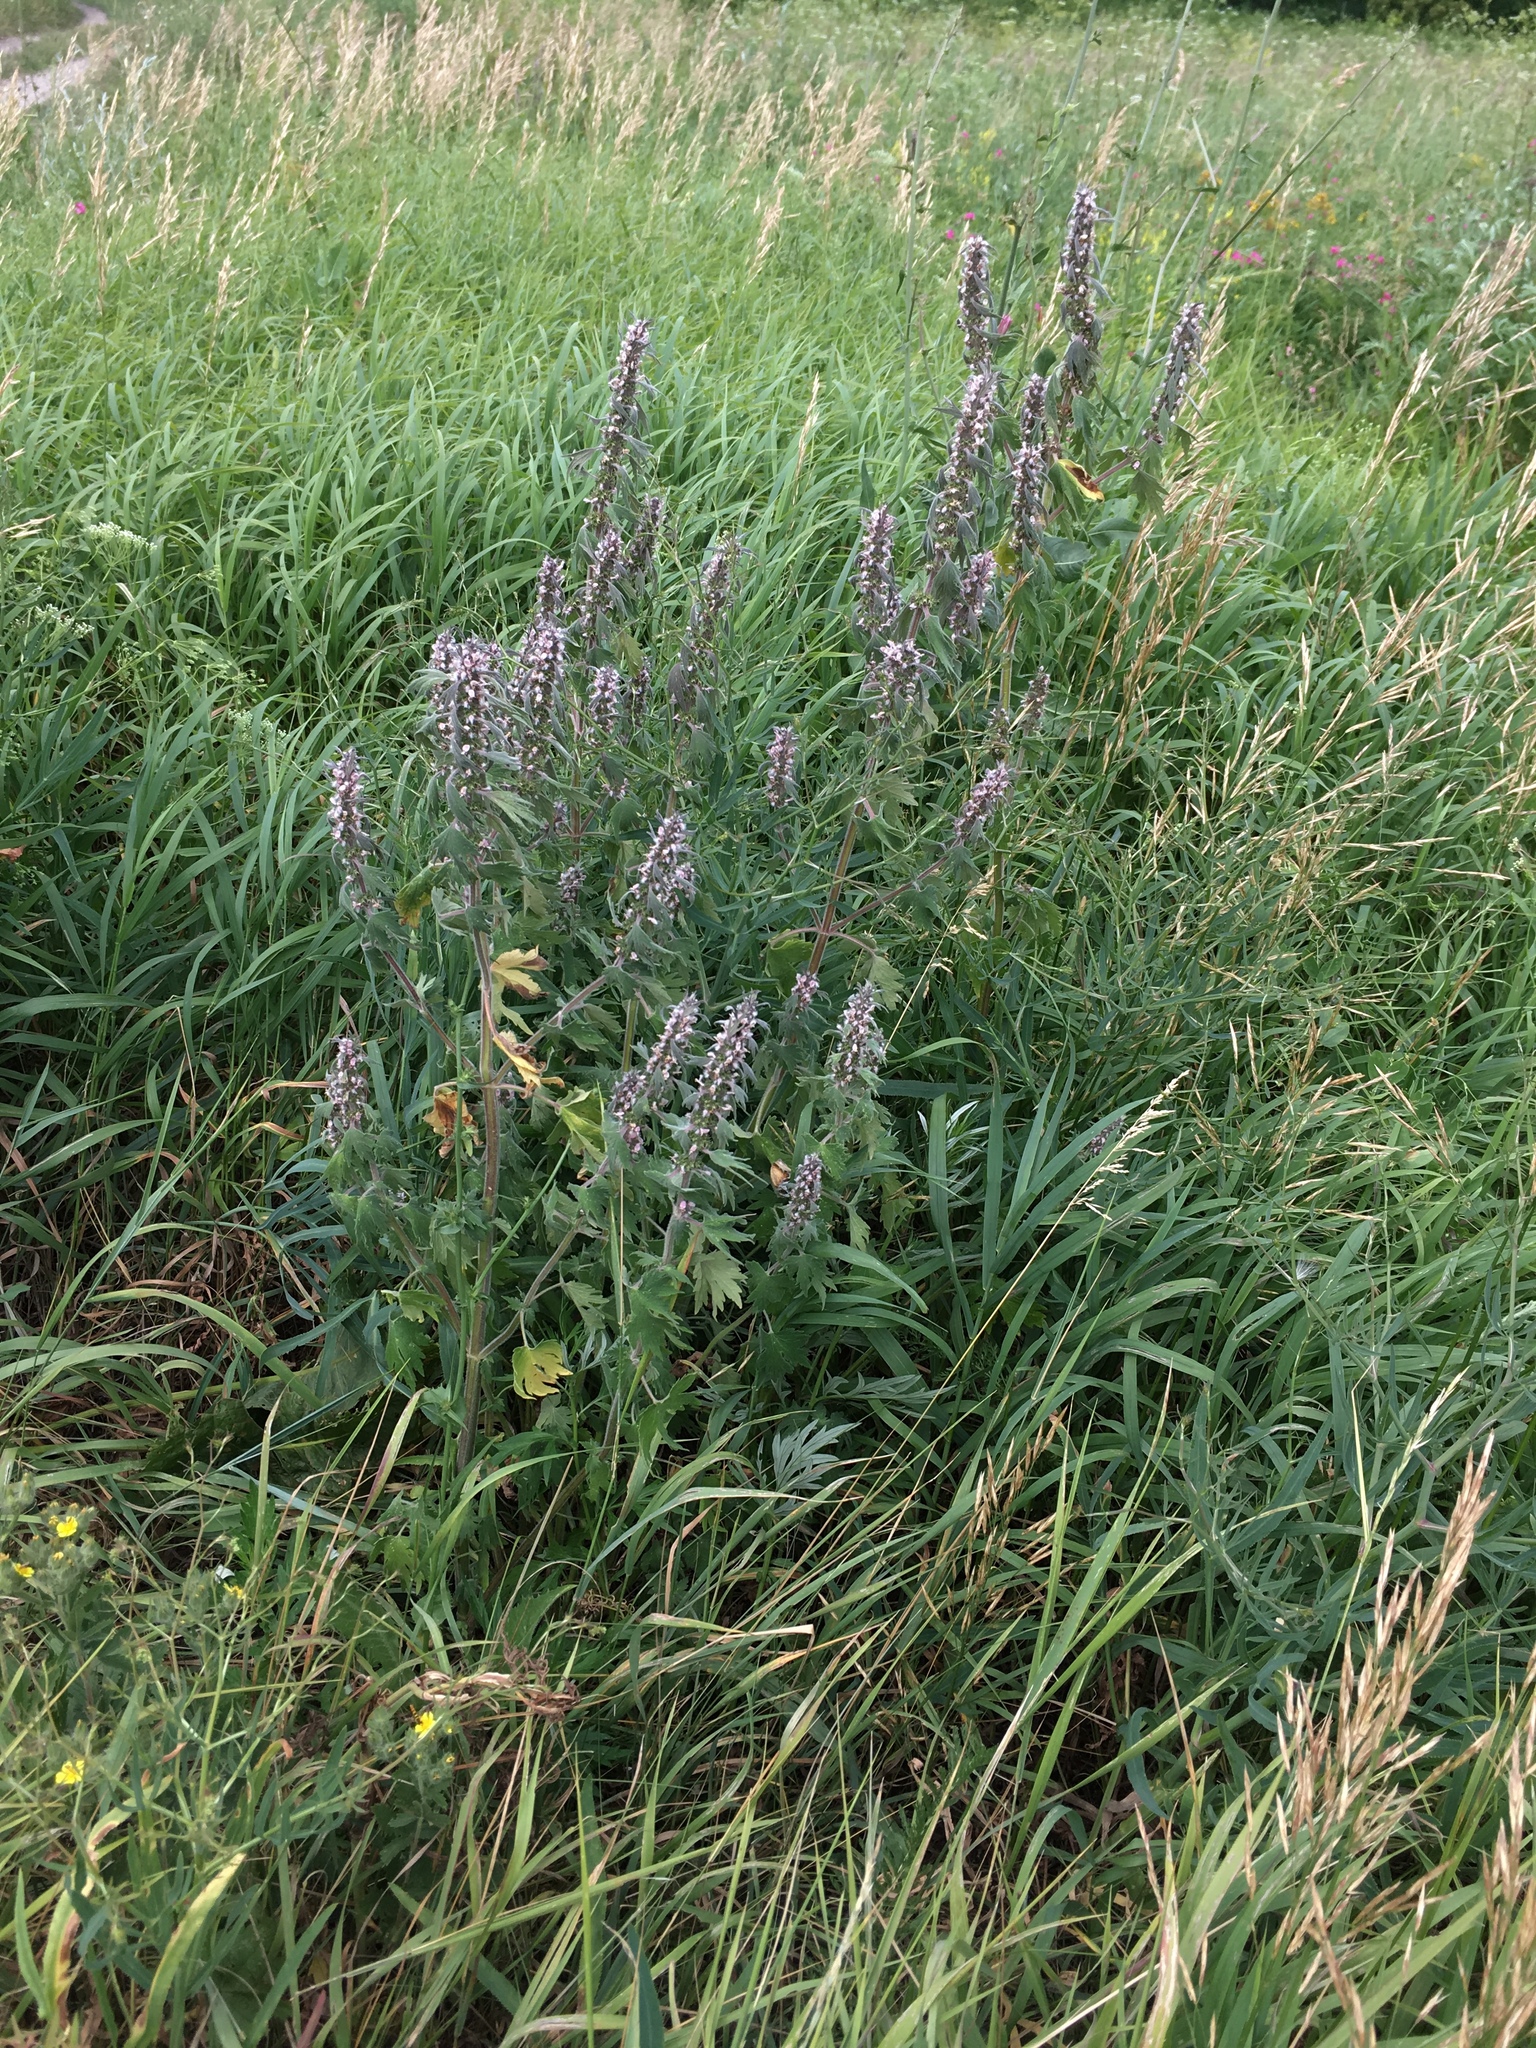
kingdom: Plantae
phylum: Tracheophyta
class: Magnoliopsida
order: Lamiales
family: Lamiaceae
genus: Leonurus
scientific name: Leonurus quinquelobatus
